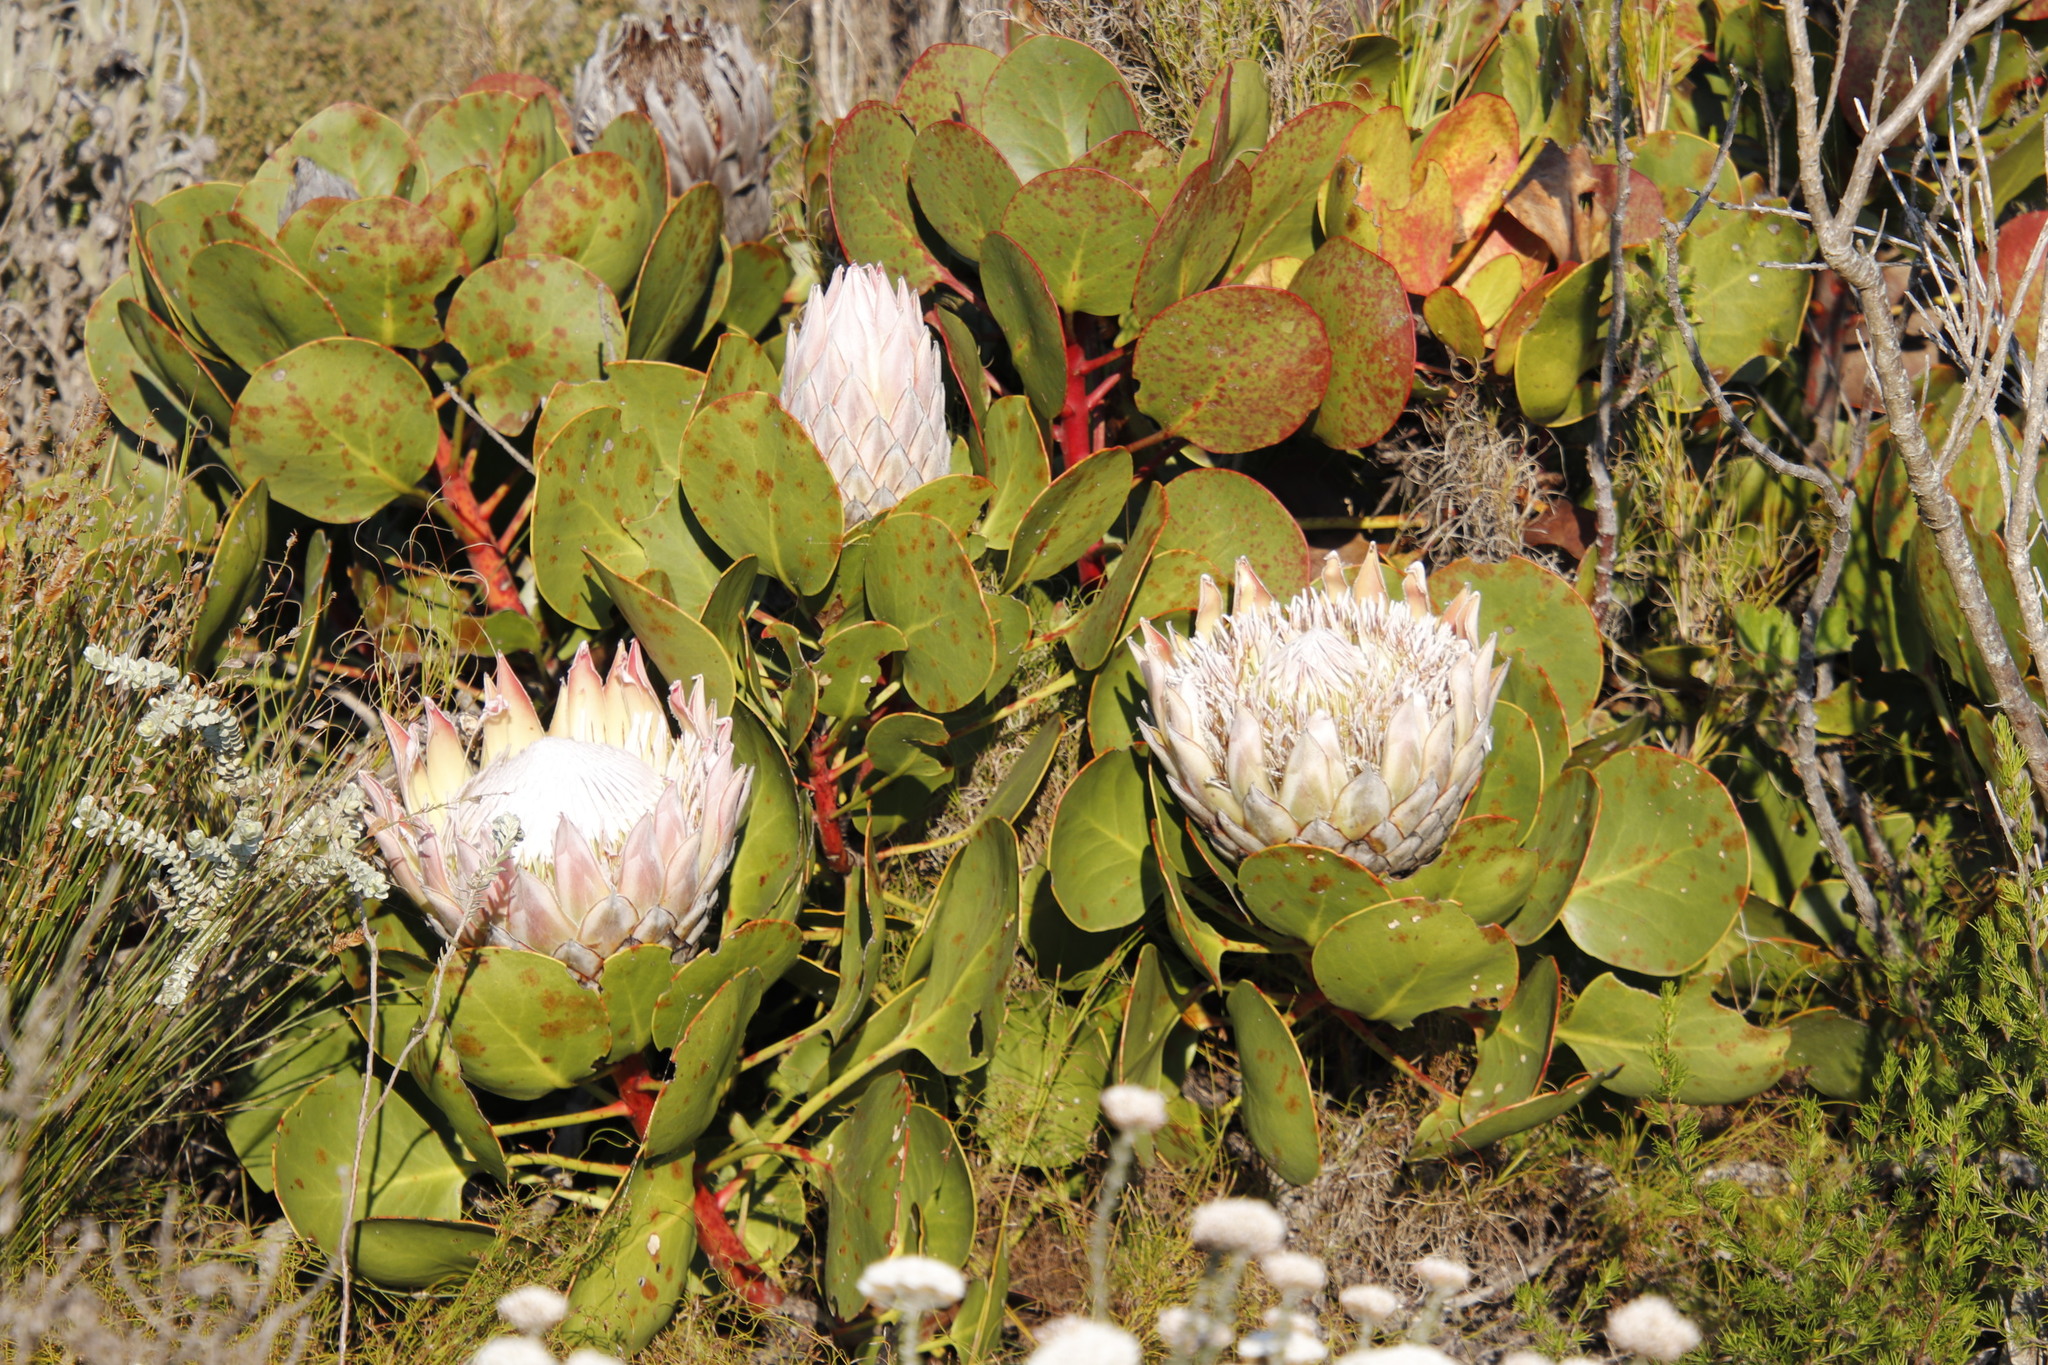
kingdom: Plantae
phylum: Tracheophyta
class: Magnoliopsida
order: Proteales
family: Proteaceae
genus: Protea
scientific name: Protea cynaroides
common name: King protea
